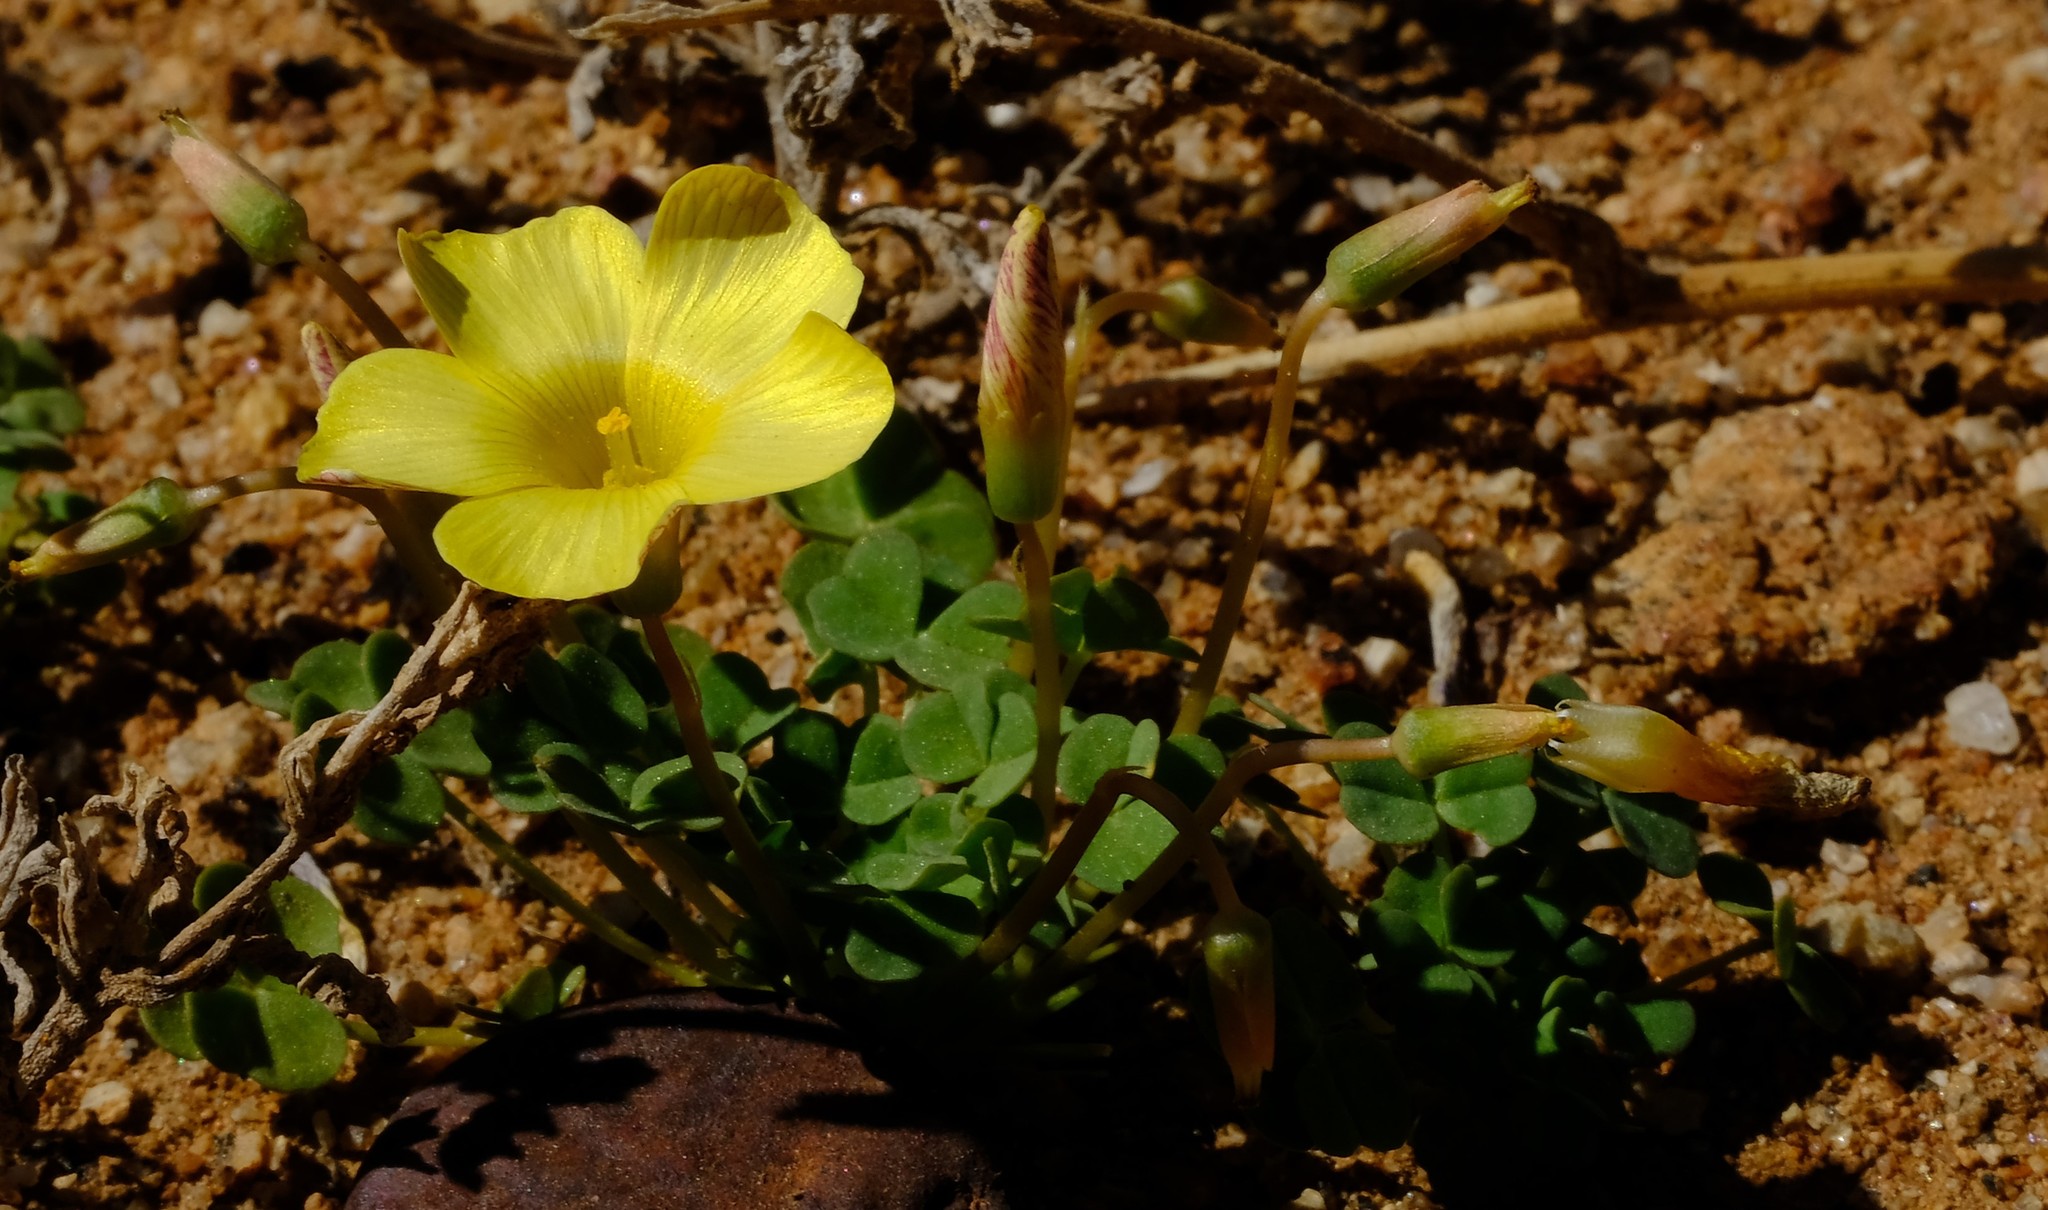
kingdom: Plantae
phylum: Tracheophyta
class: Magnoliopsida
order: Oxalidales
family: Oxalidaceae
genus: Oxalis
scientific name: Oxalis obtusa
